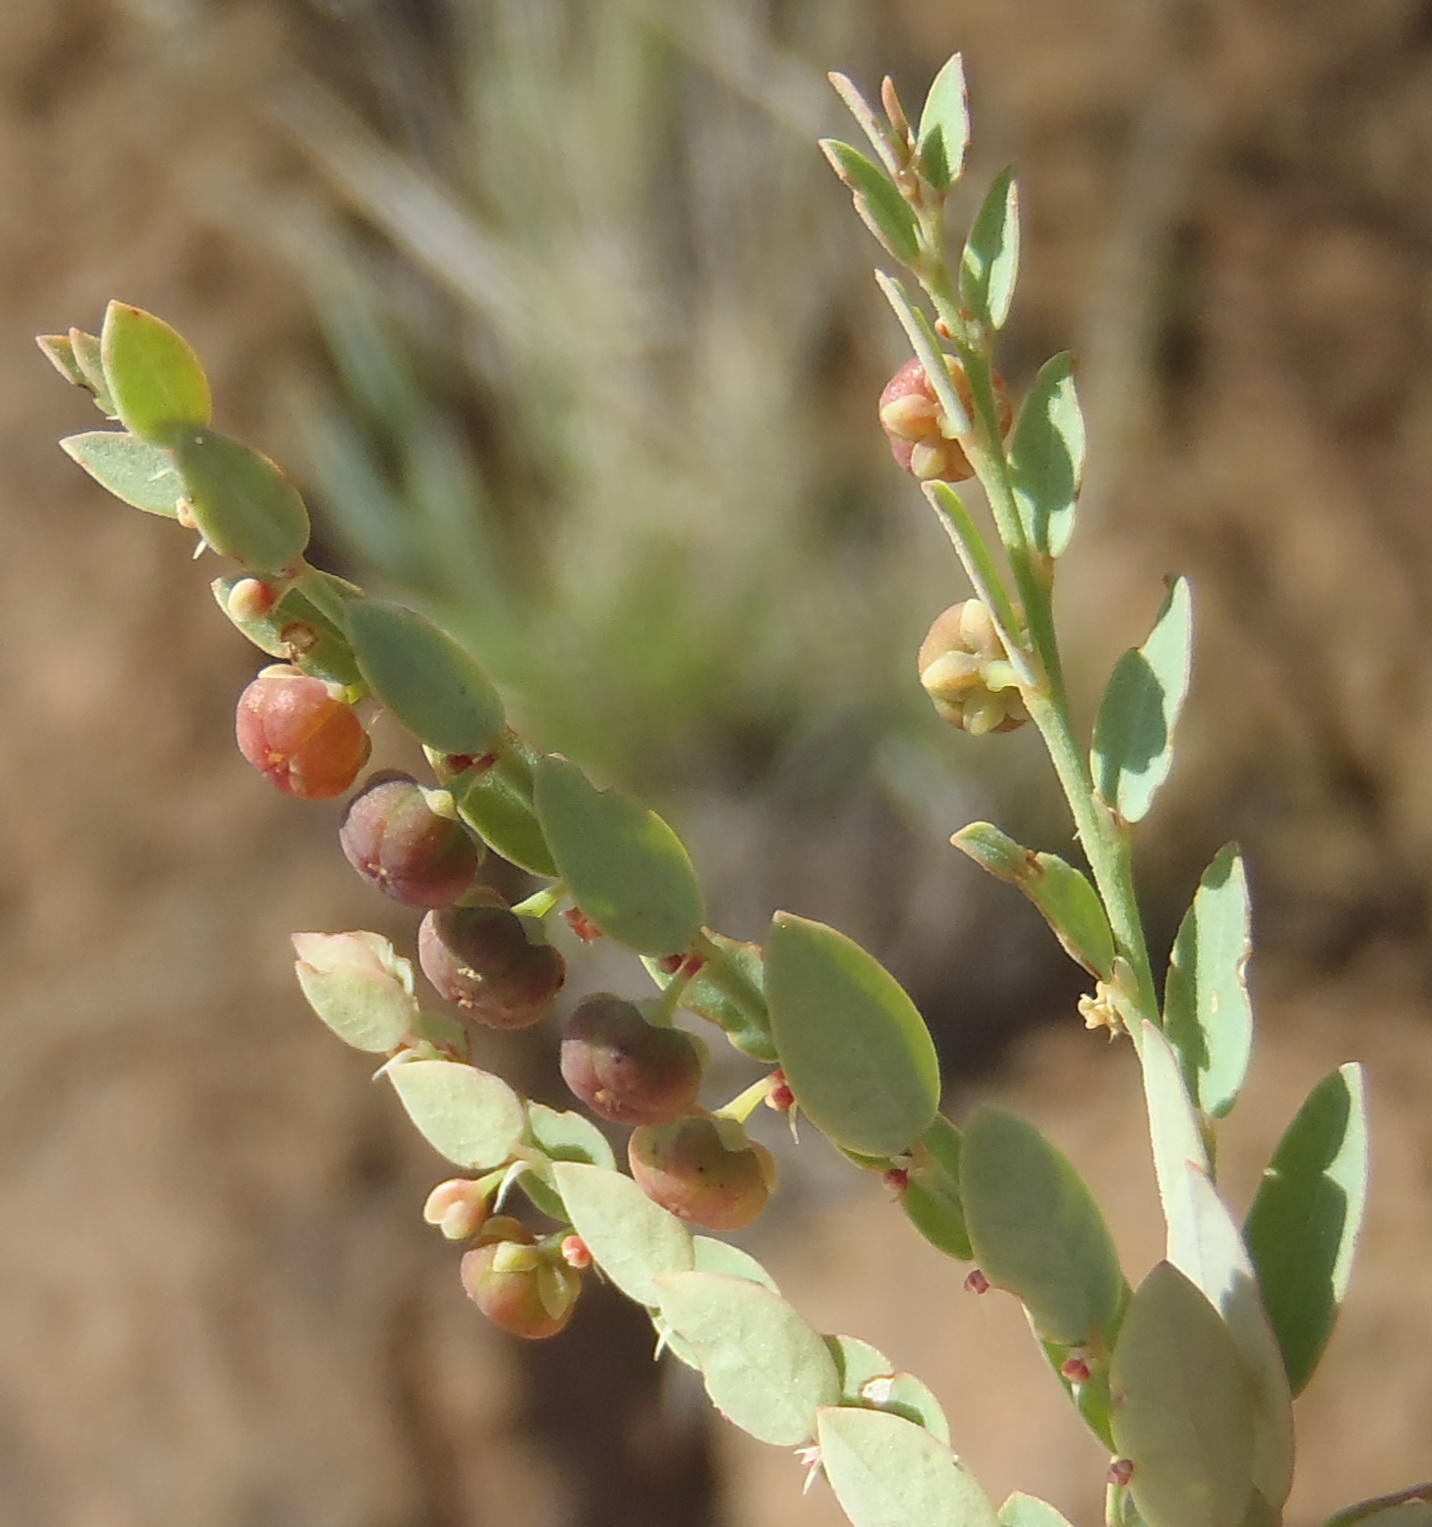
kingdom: Plantae
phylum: Tracheophyta
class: Magnoliopsida
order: Malpighiales
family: Phyllanthaceae
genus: Phyllanthus
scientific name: Phyllanthus parvulus
